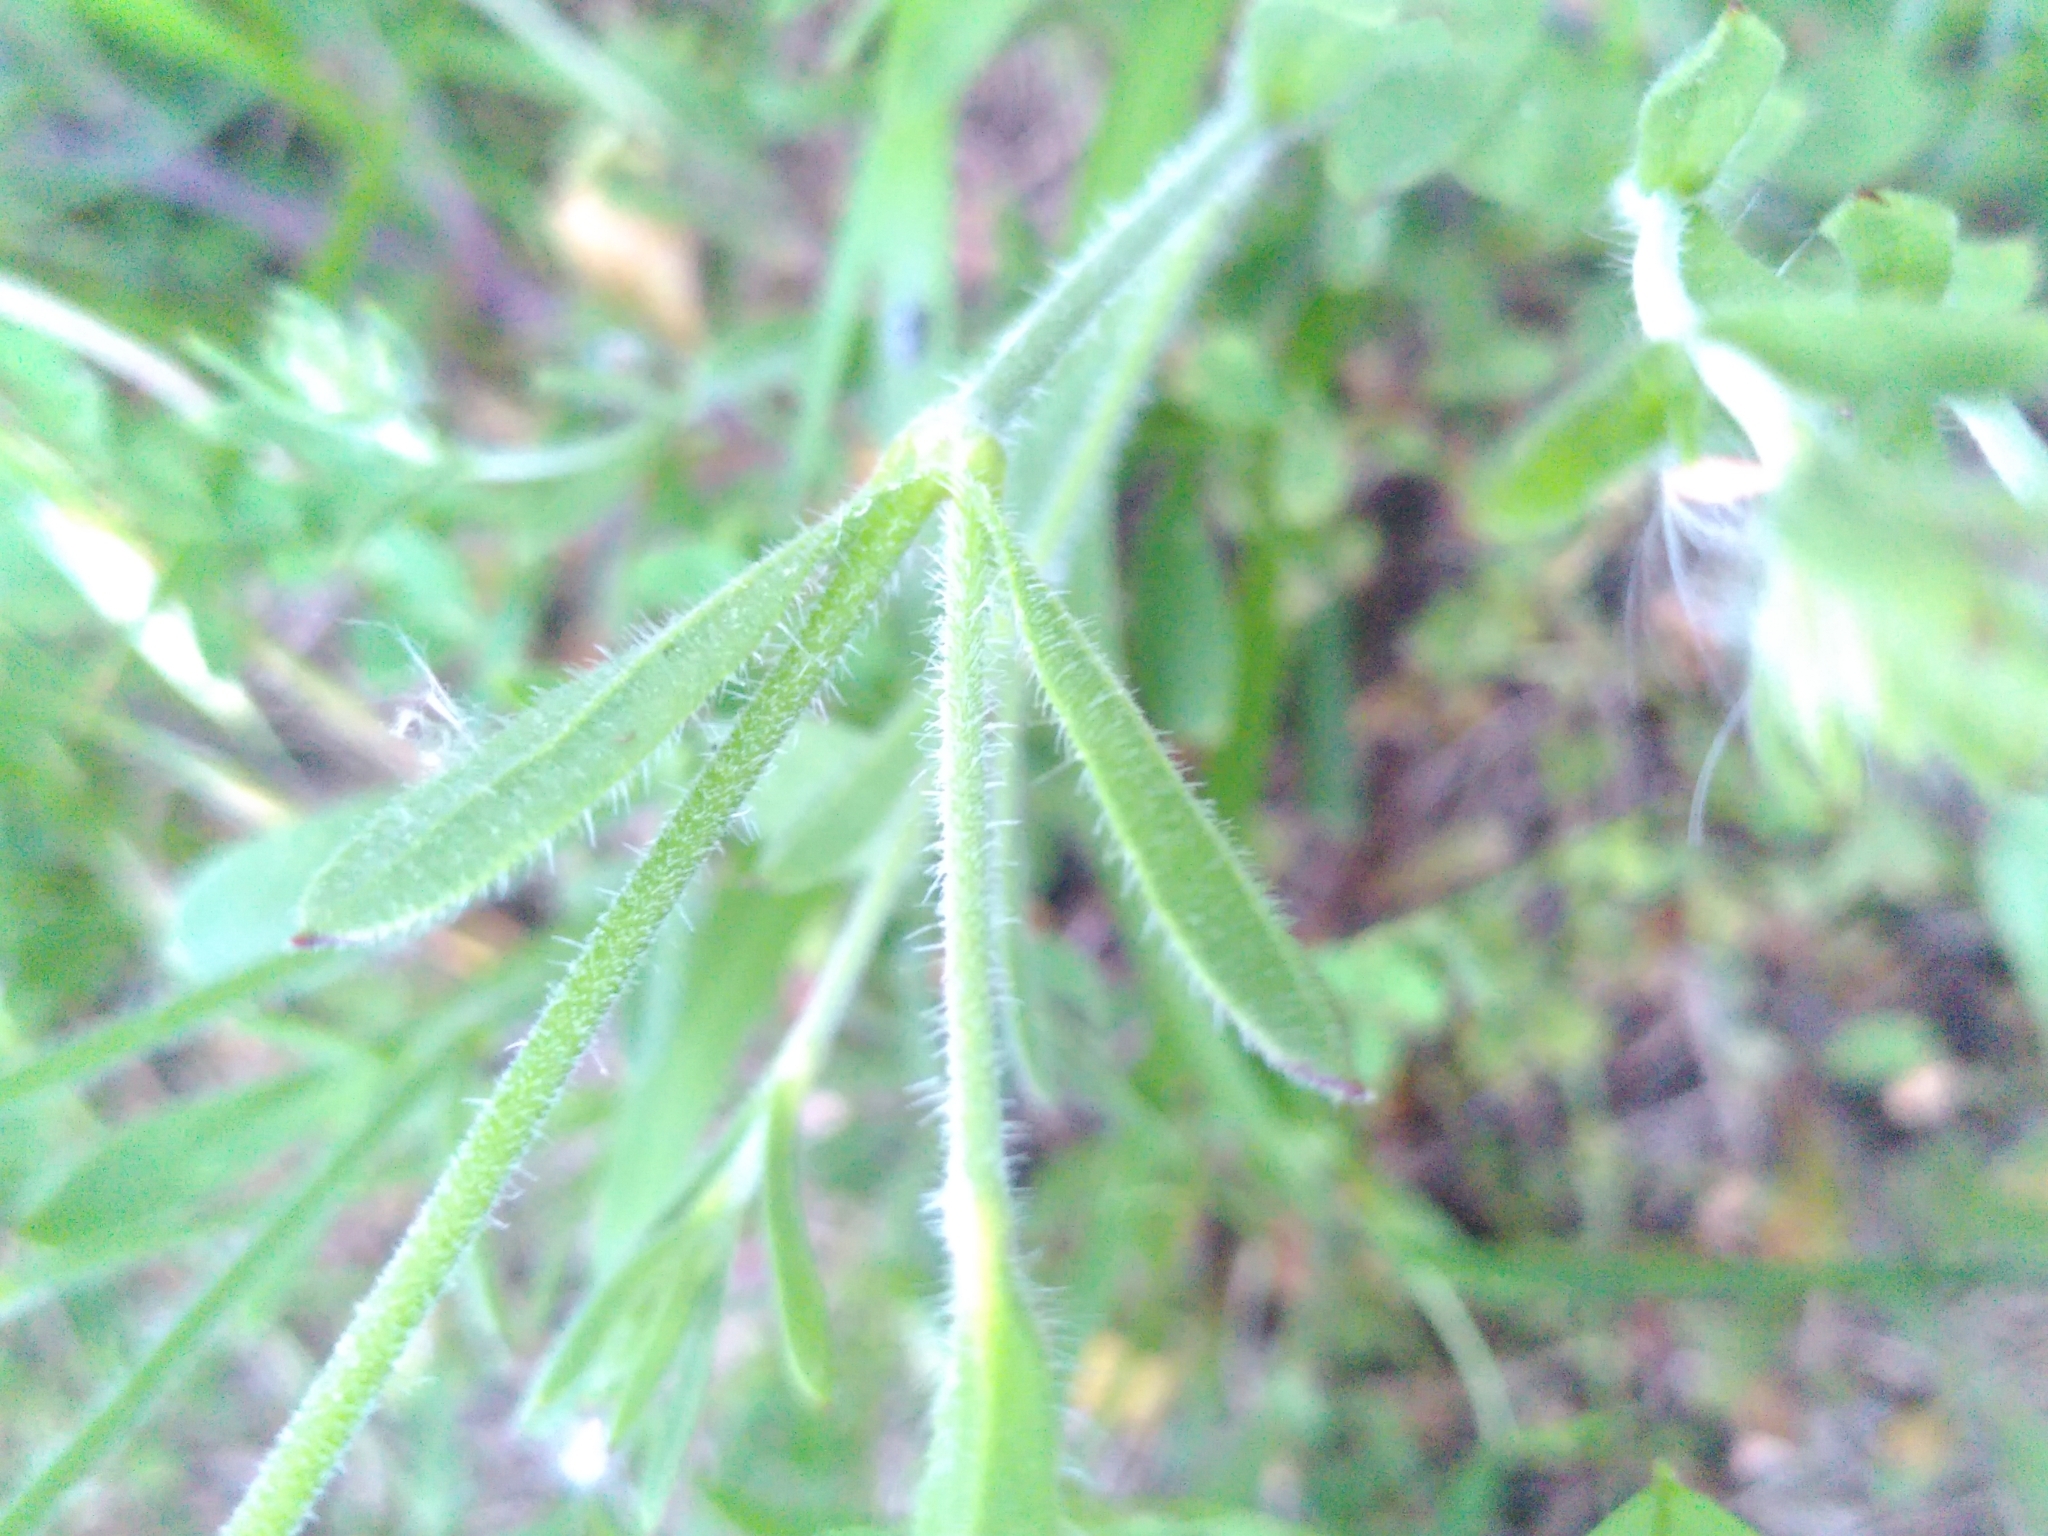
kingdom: Plantae
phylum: Tracheophyta
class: Magnoliopsida
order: Caryophyllales
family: Caryophyllaceae
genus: Silene
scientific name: Silene gallica
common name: Small-flowered catchfly
